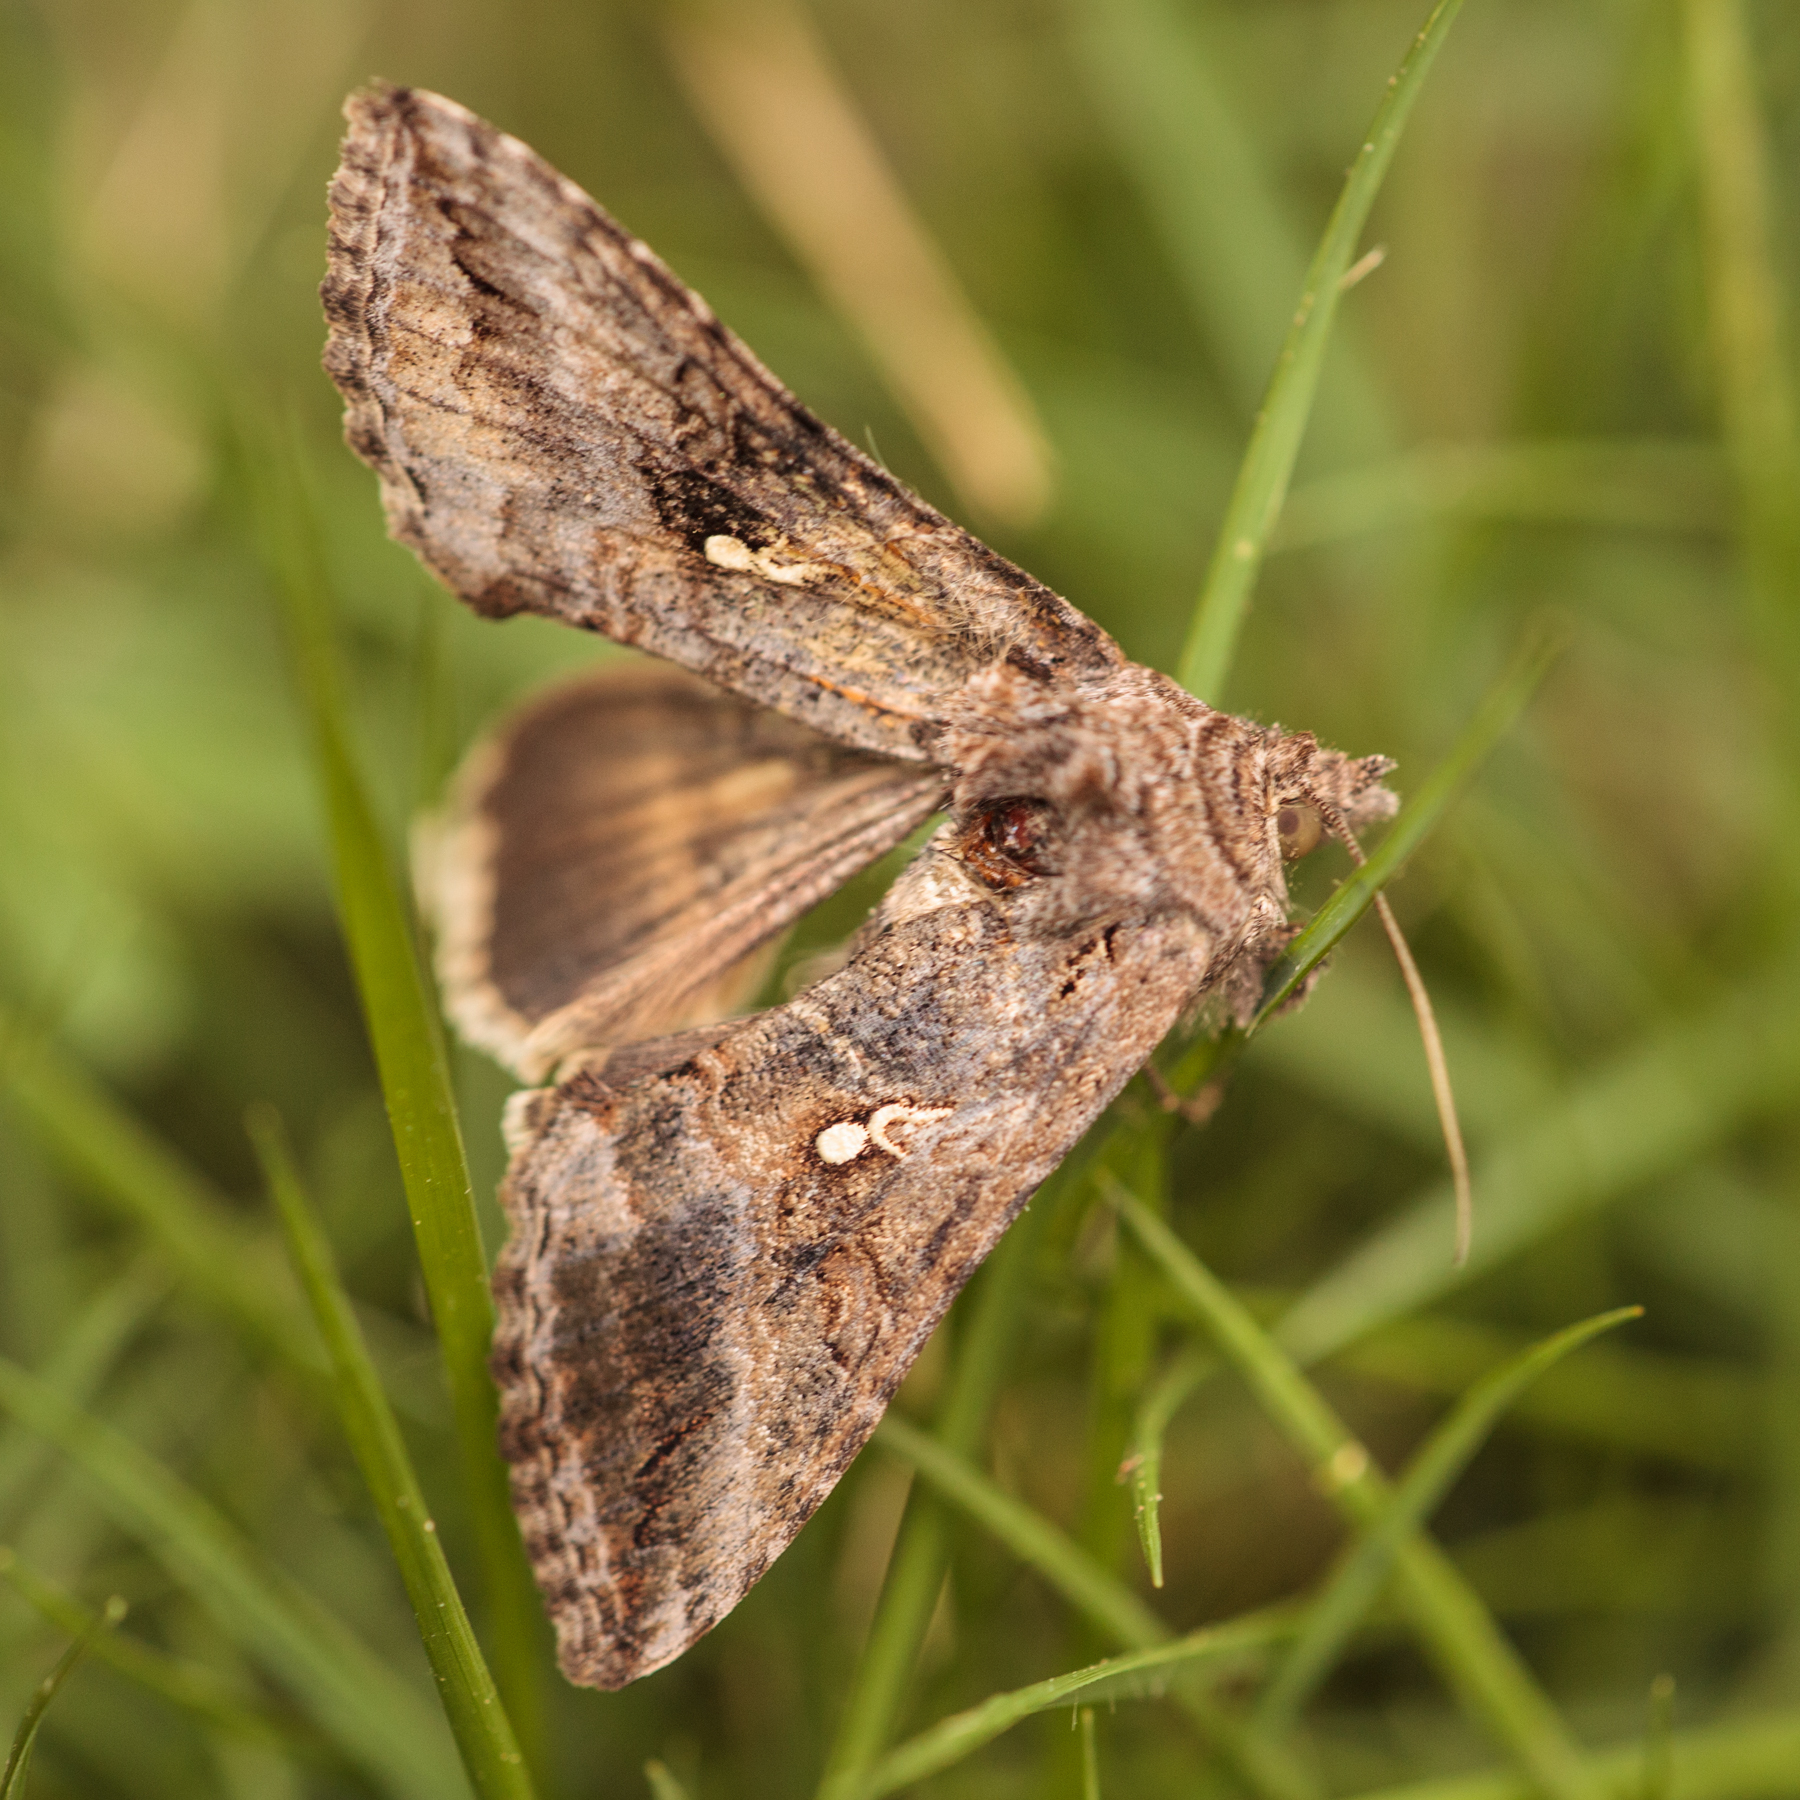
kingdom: Animalia
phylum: Arthropoda
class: Insecta
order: Lepidoptera
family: Noctuidae
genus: Rachiplusia
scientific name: Rachiplusia ou
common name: Gray looper moth
